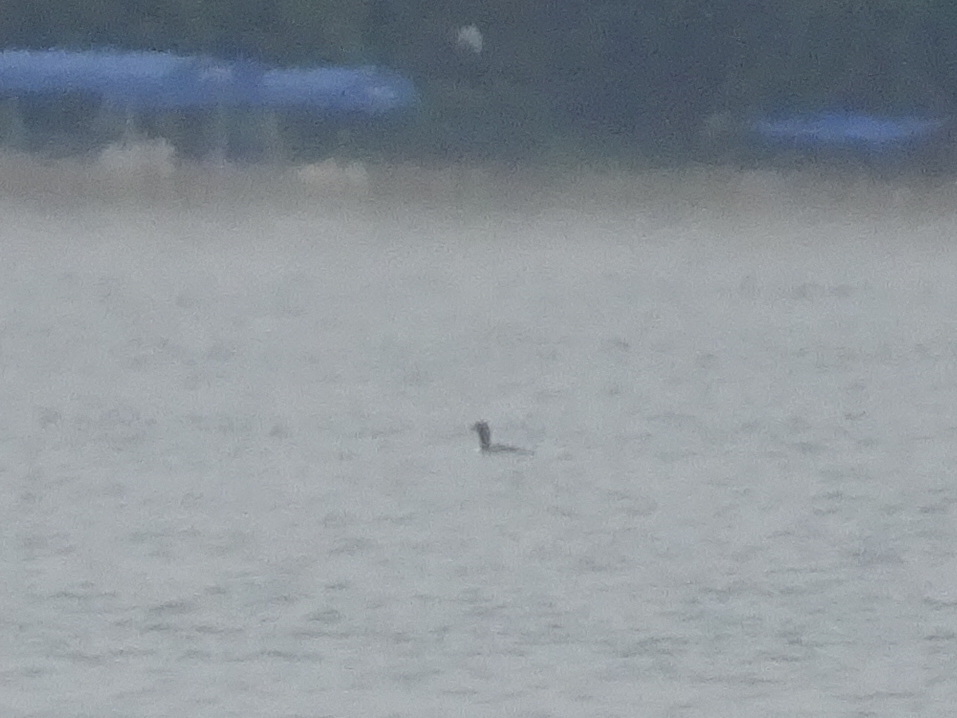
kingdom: Animalia
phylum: Chordata
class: Aves
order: Gaviiformes
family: Gaviidae
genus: Gavia
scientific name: Gavia immer
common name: Common loon
